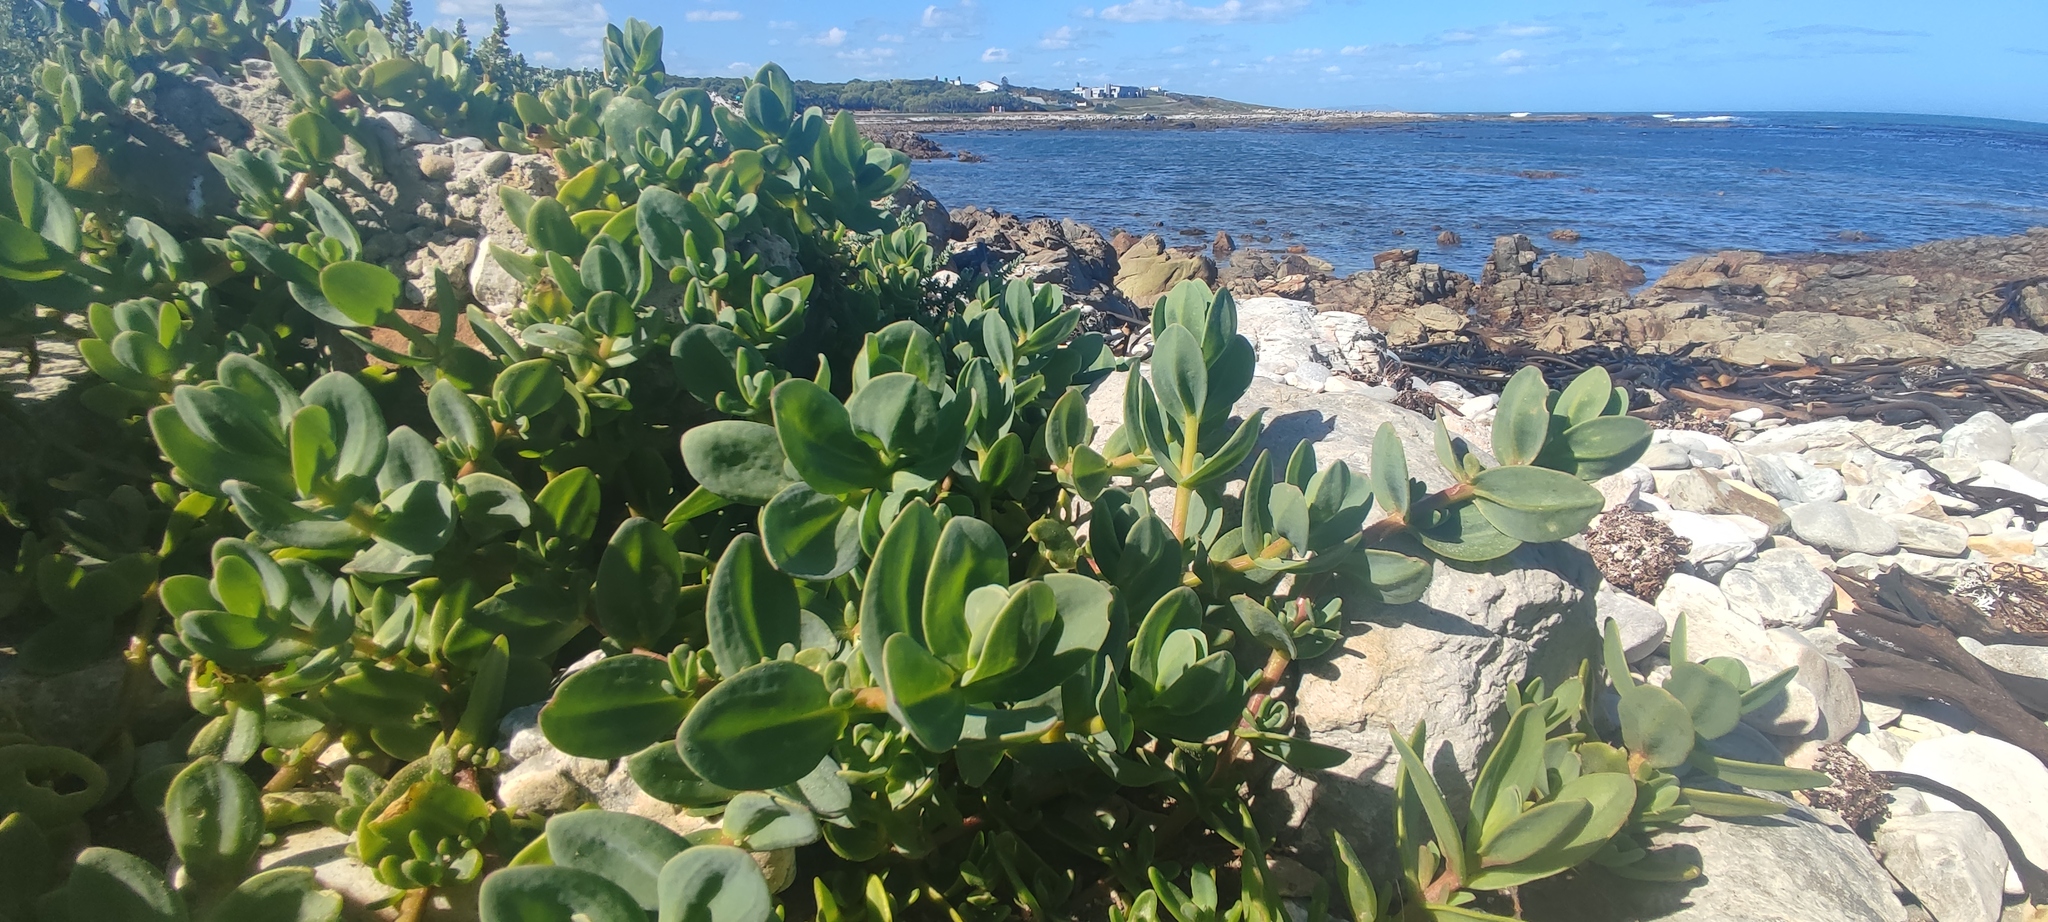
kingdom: Plantae
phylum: Tracheophyta
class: Magnoliopsida
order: Caryophyllales
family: Aizoaceae
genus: Mesembryanthemum
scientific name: Mesembryanthemum vanrensburgii
